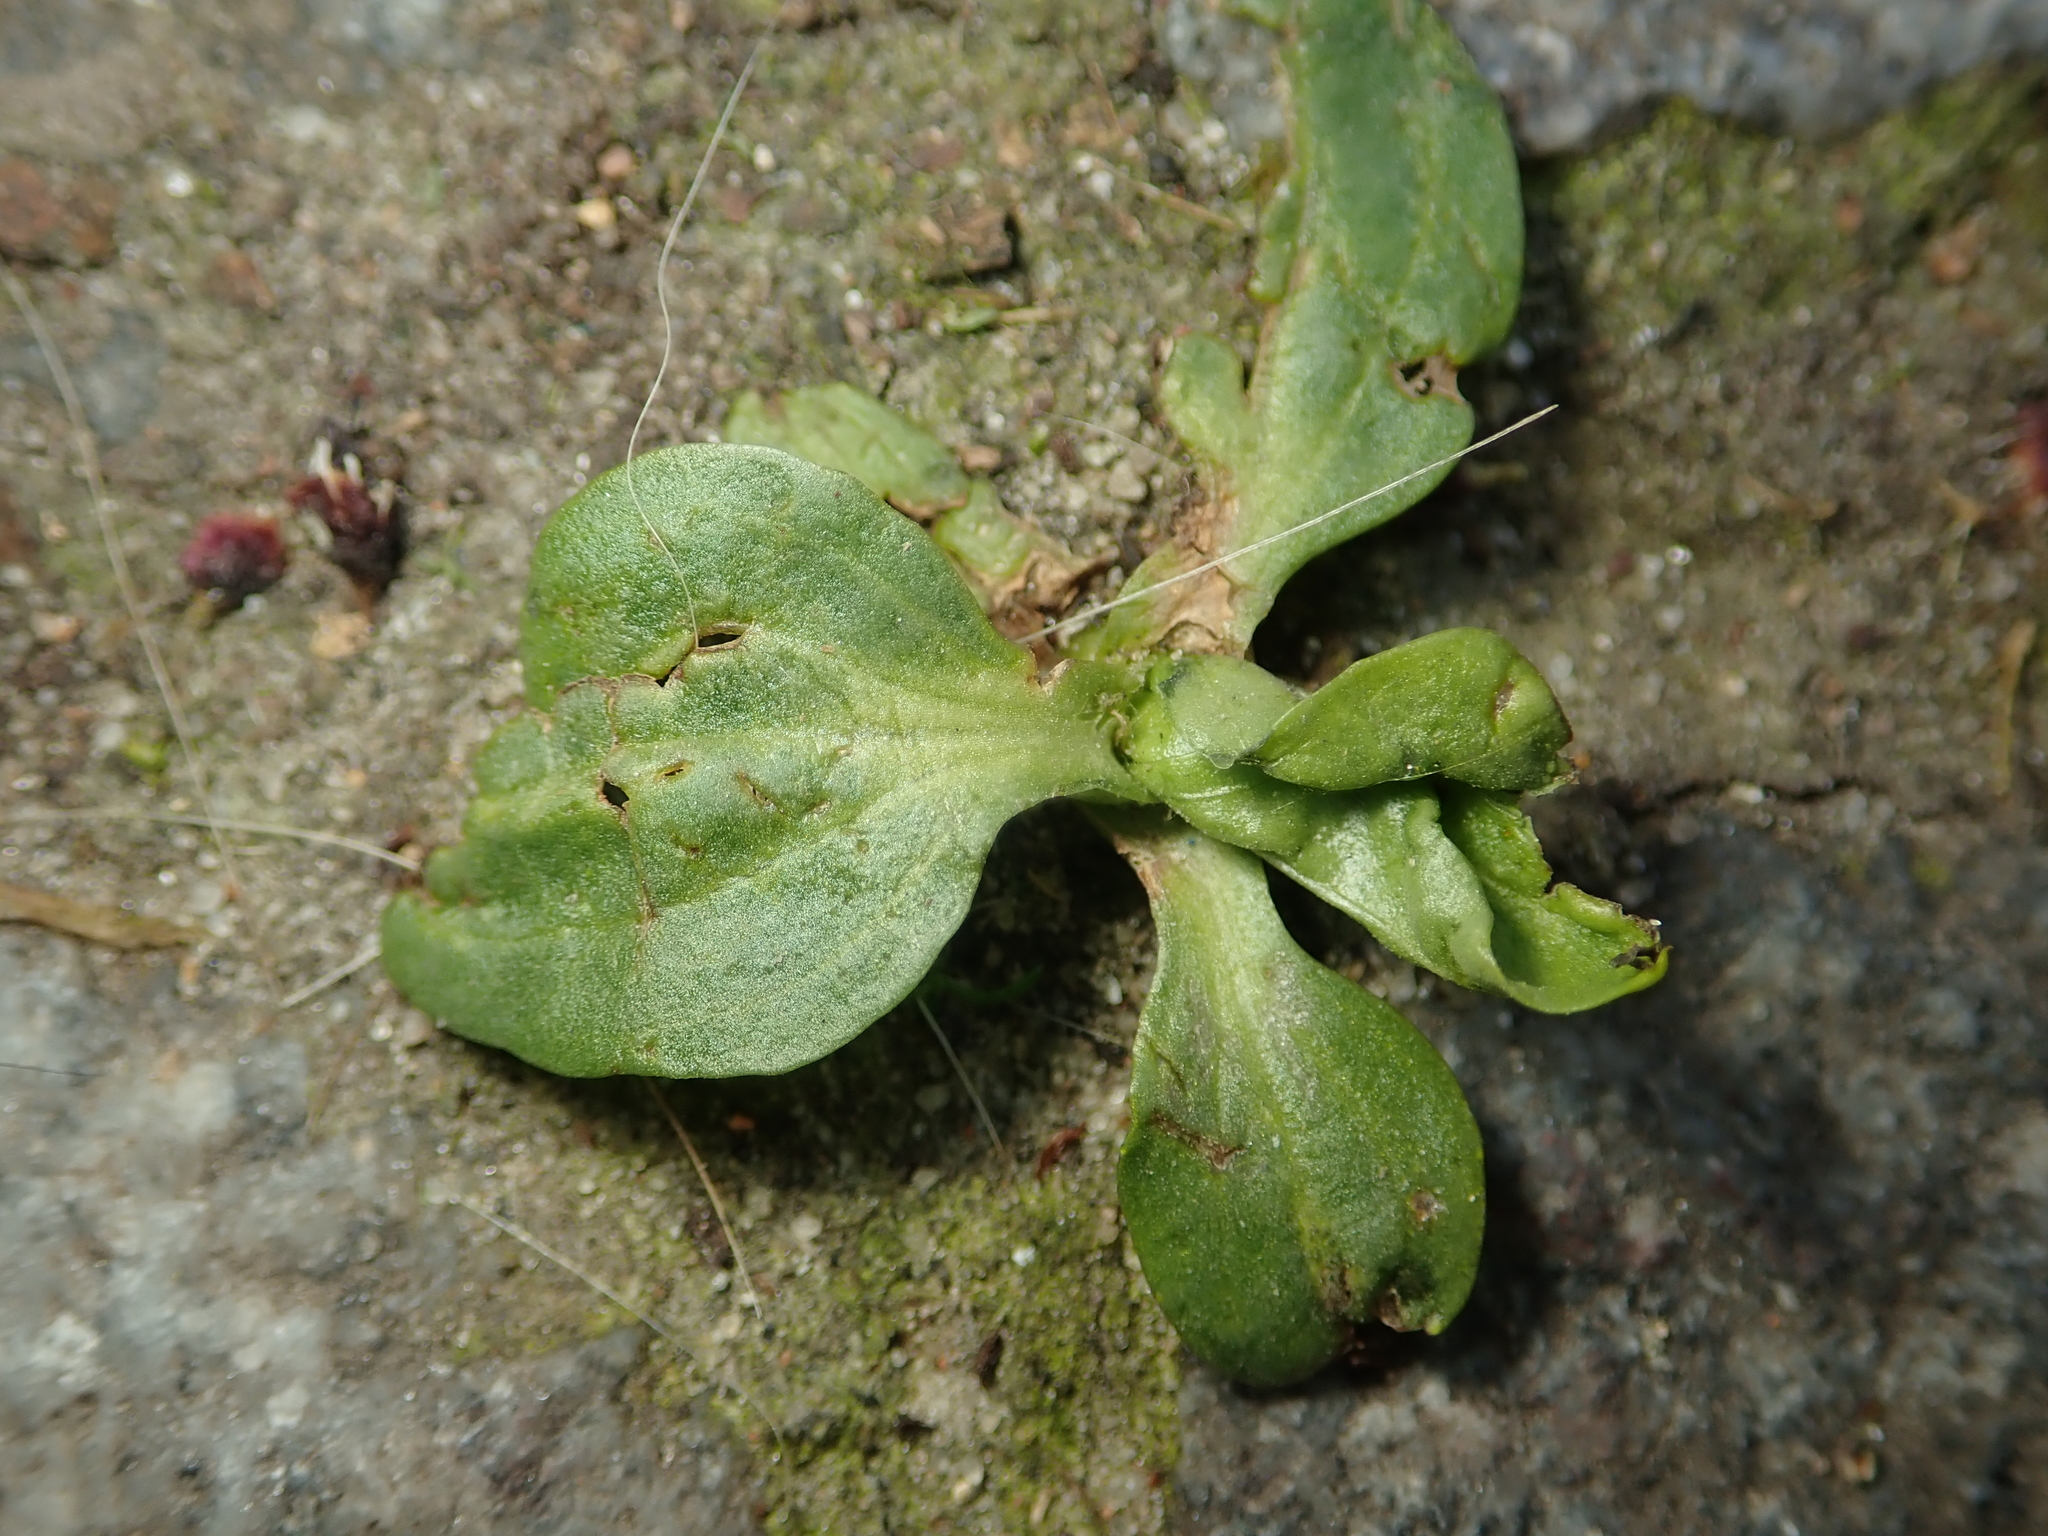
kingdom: Plantae
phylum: Tracheophyta
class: Magnoliopsida
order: Lamiales
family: Plantaginaceae
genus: Plantago
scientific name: Plantago major
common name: Common plantain
